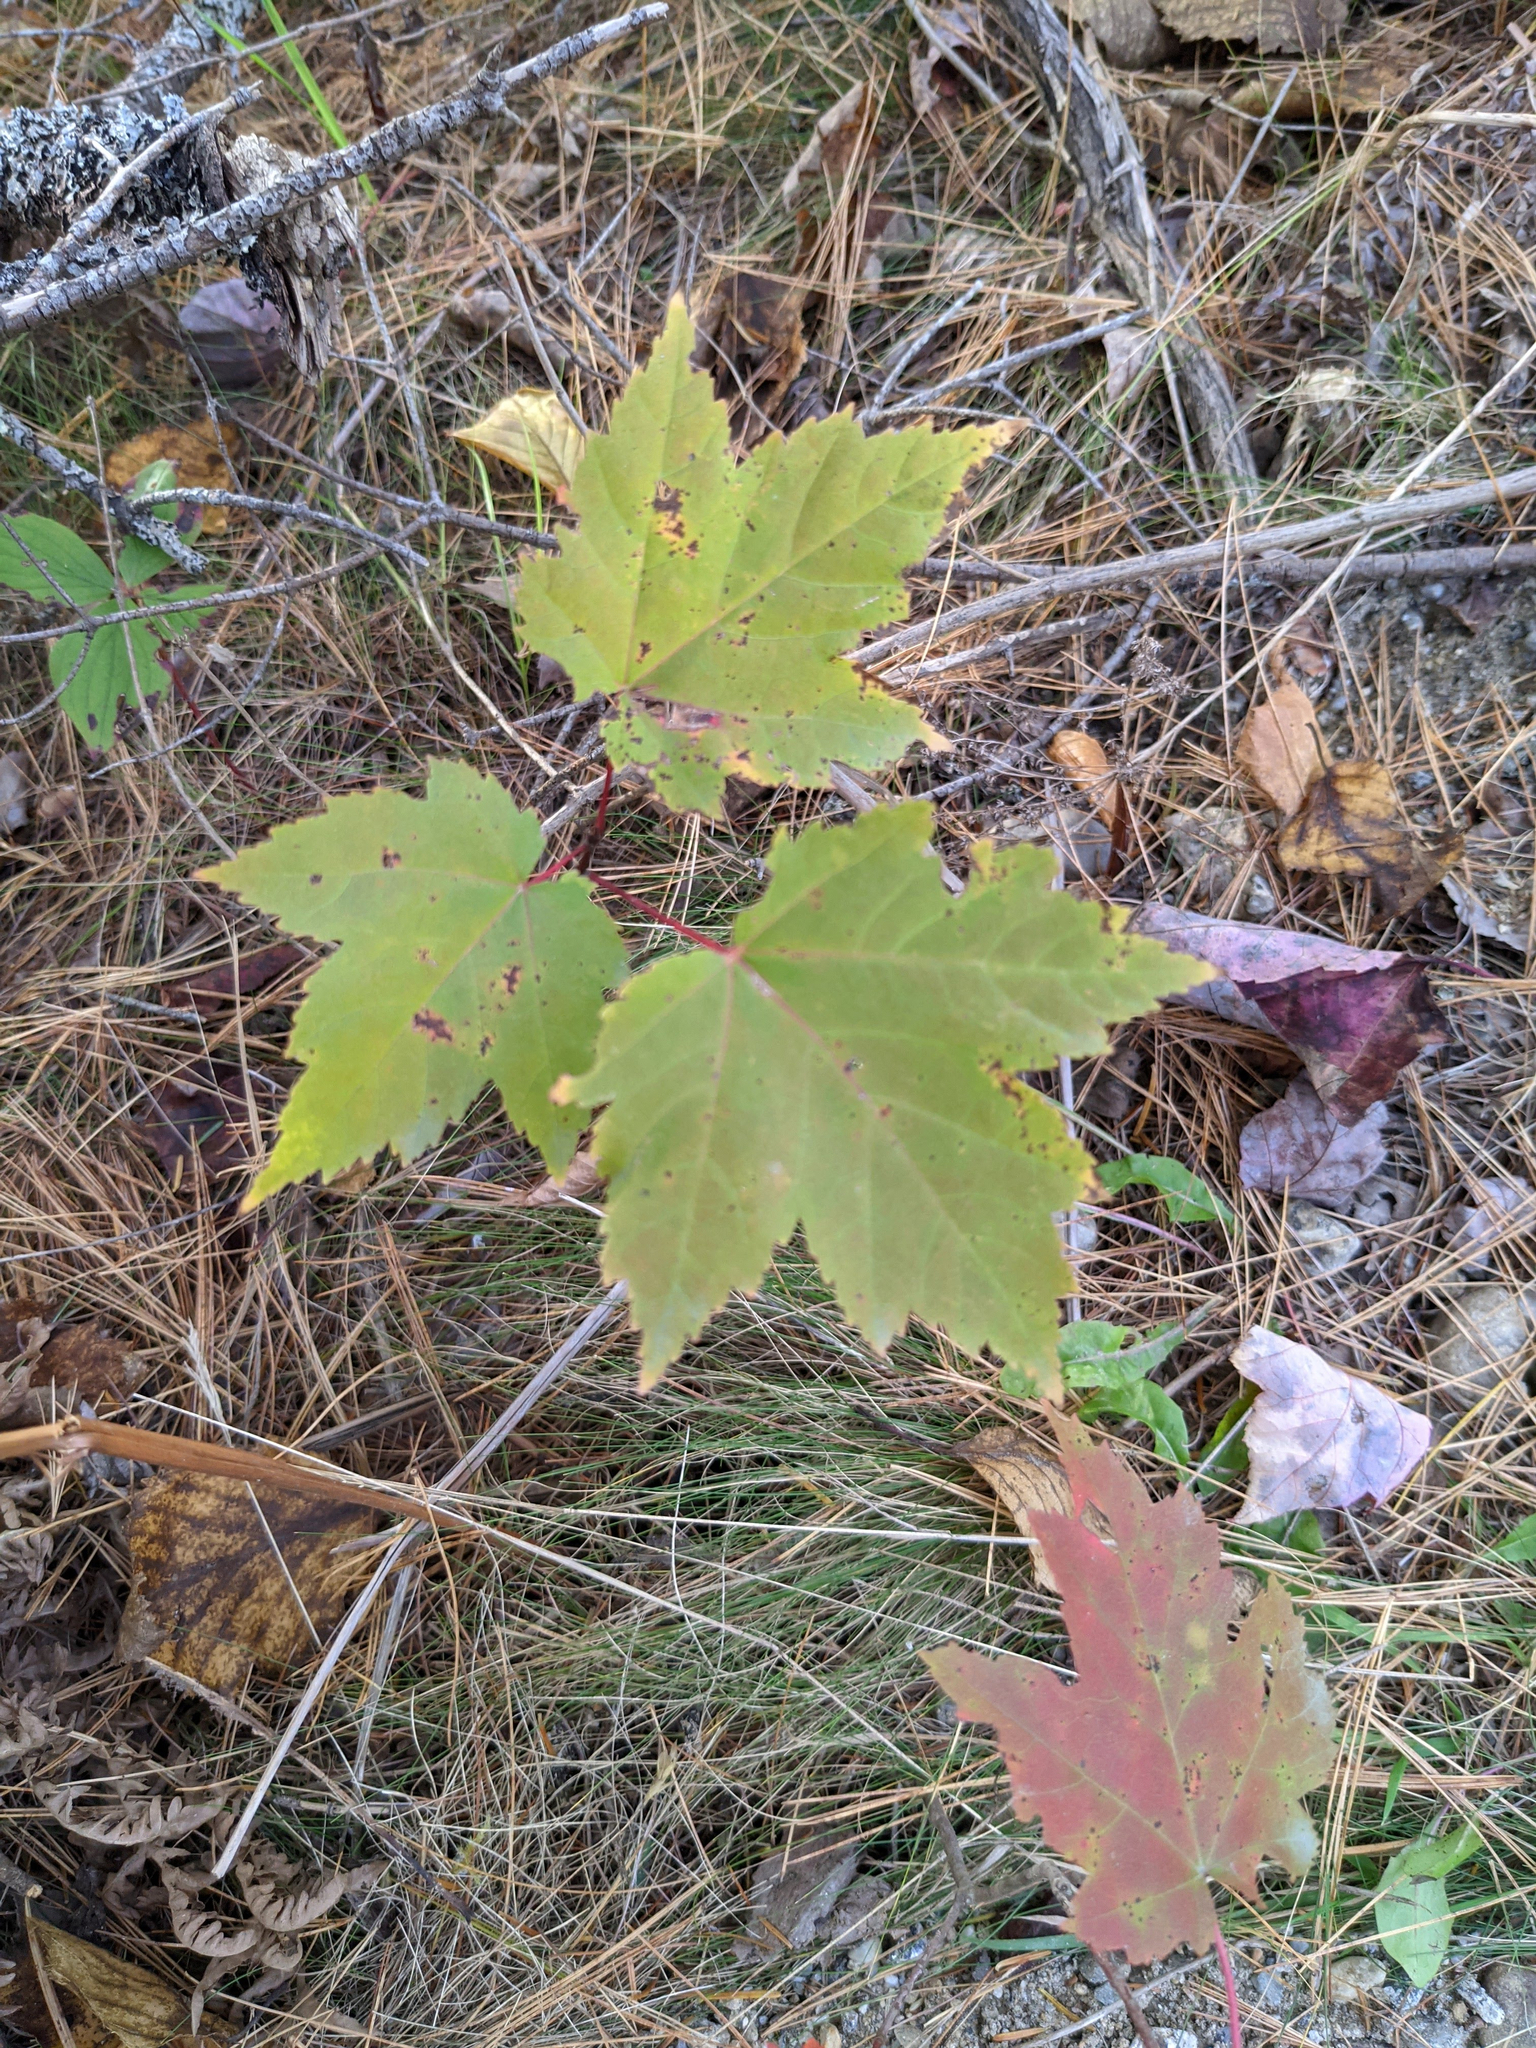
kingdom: Plantae
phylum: Tracheophyta
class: Magnoliopsida
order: Sapindales
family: Sapindaceae
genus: Acer
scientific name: Acer rubrum
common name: Red maple
